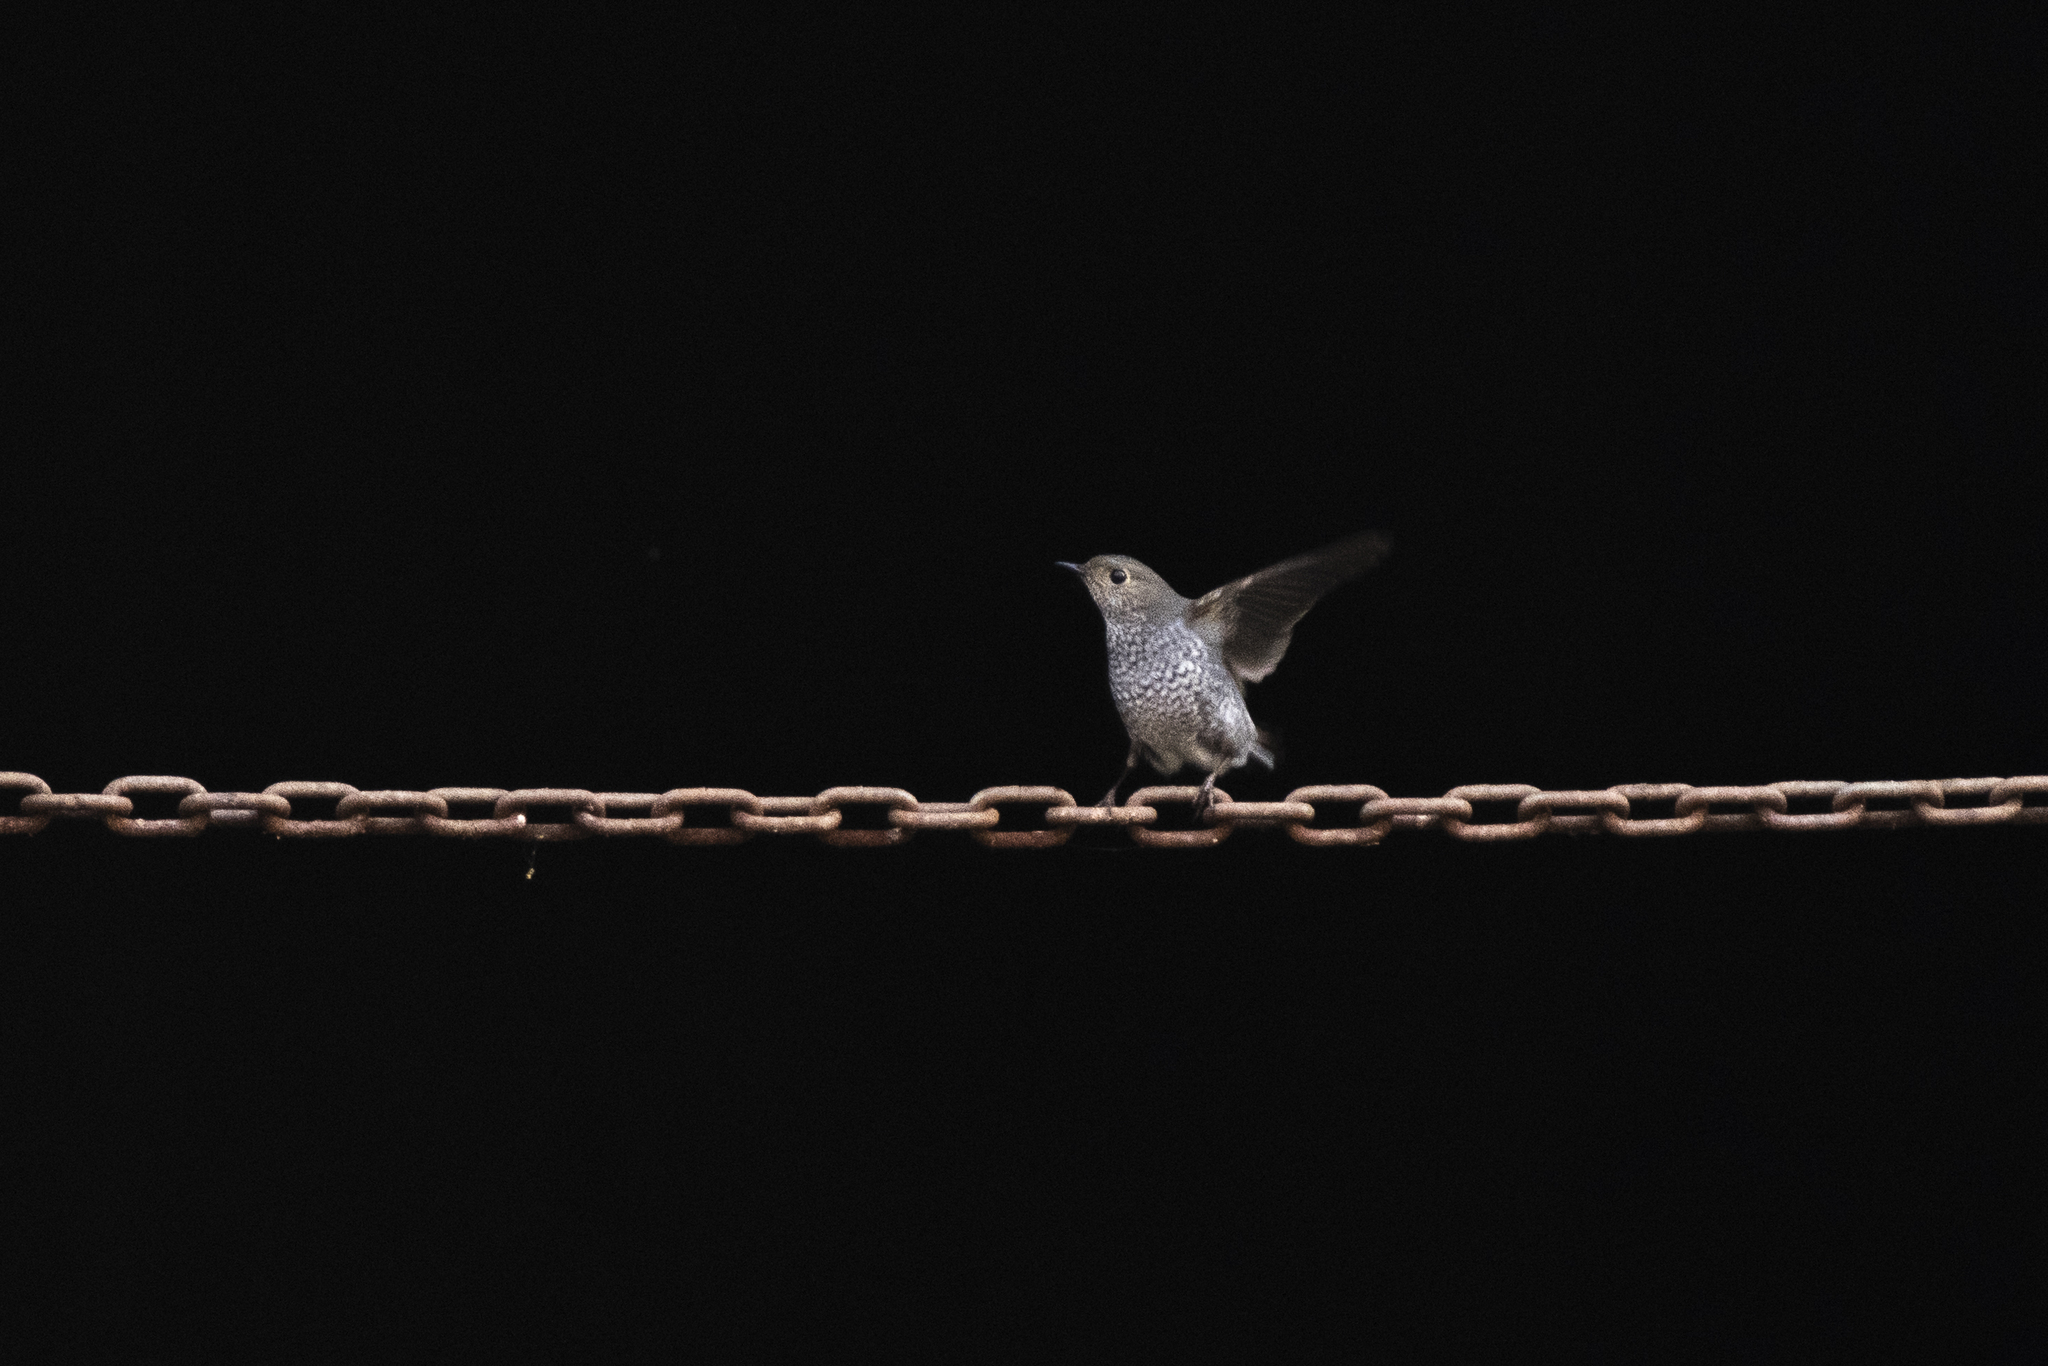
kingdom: Animalia
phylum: Chordata
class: Aves
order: Passeriformes
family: Muscicapidae
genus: Phoenicurus
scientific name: Phoenicurus fuliginosus
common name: Plumbeous water redstart
